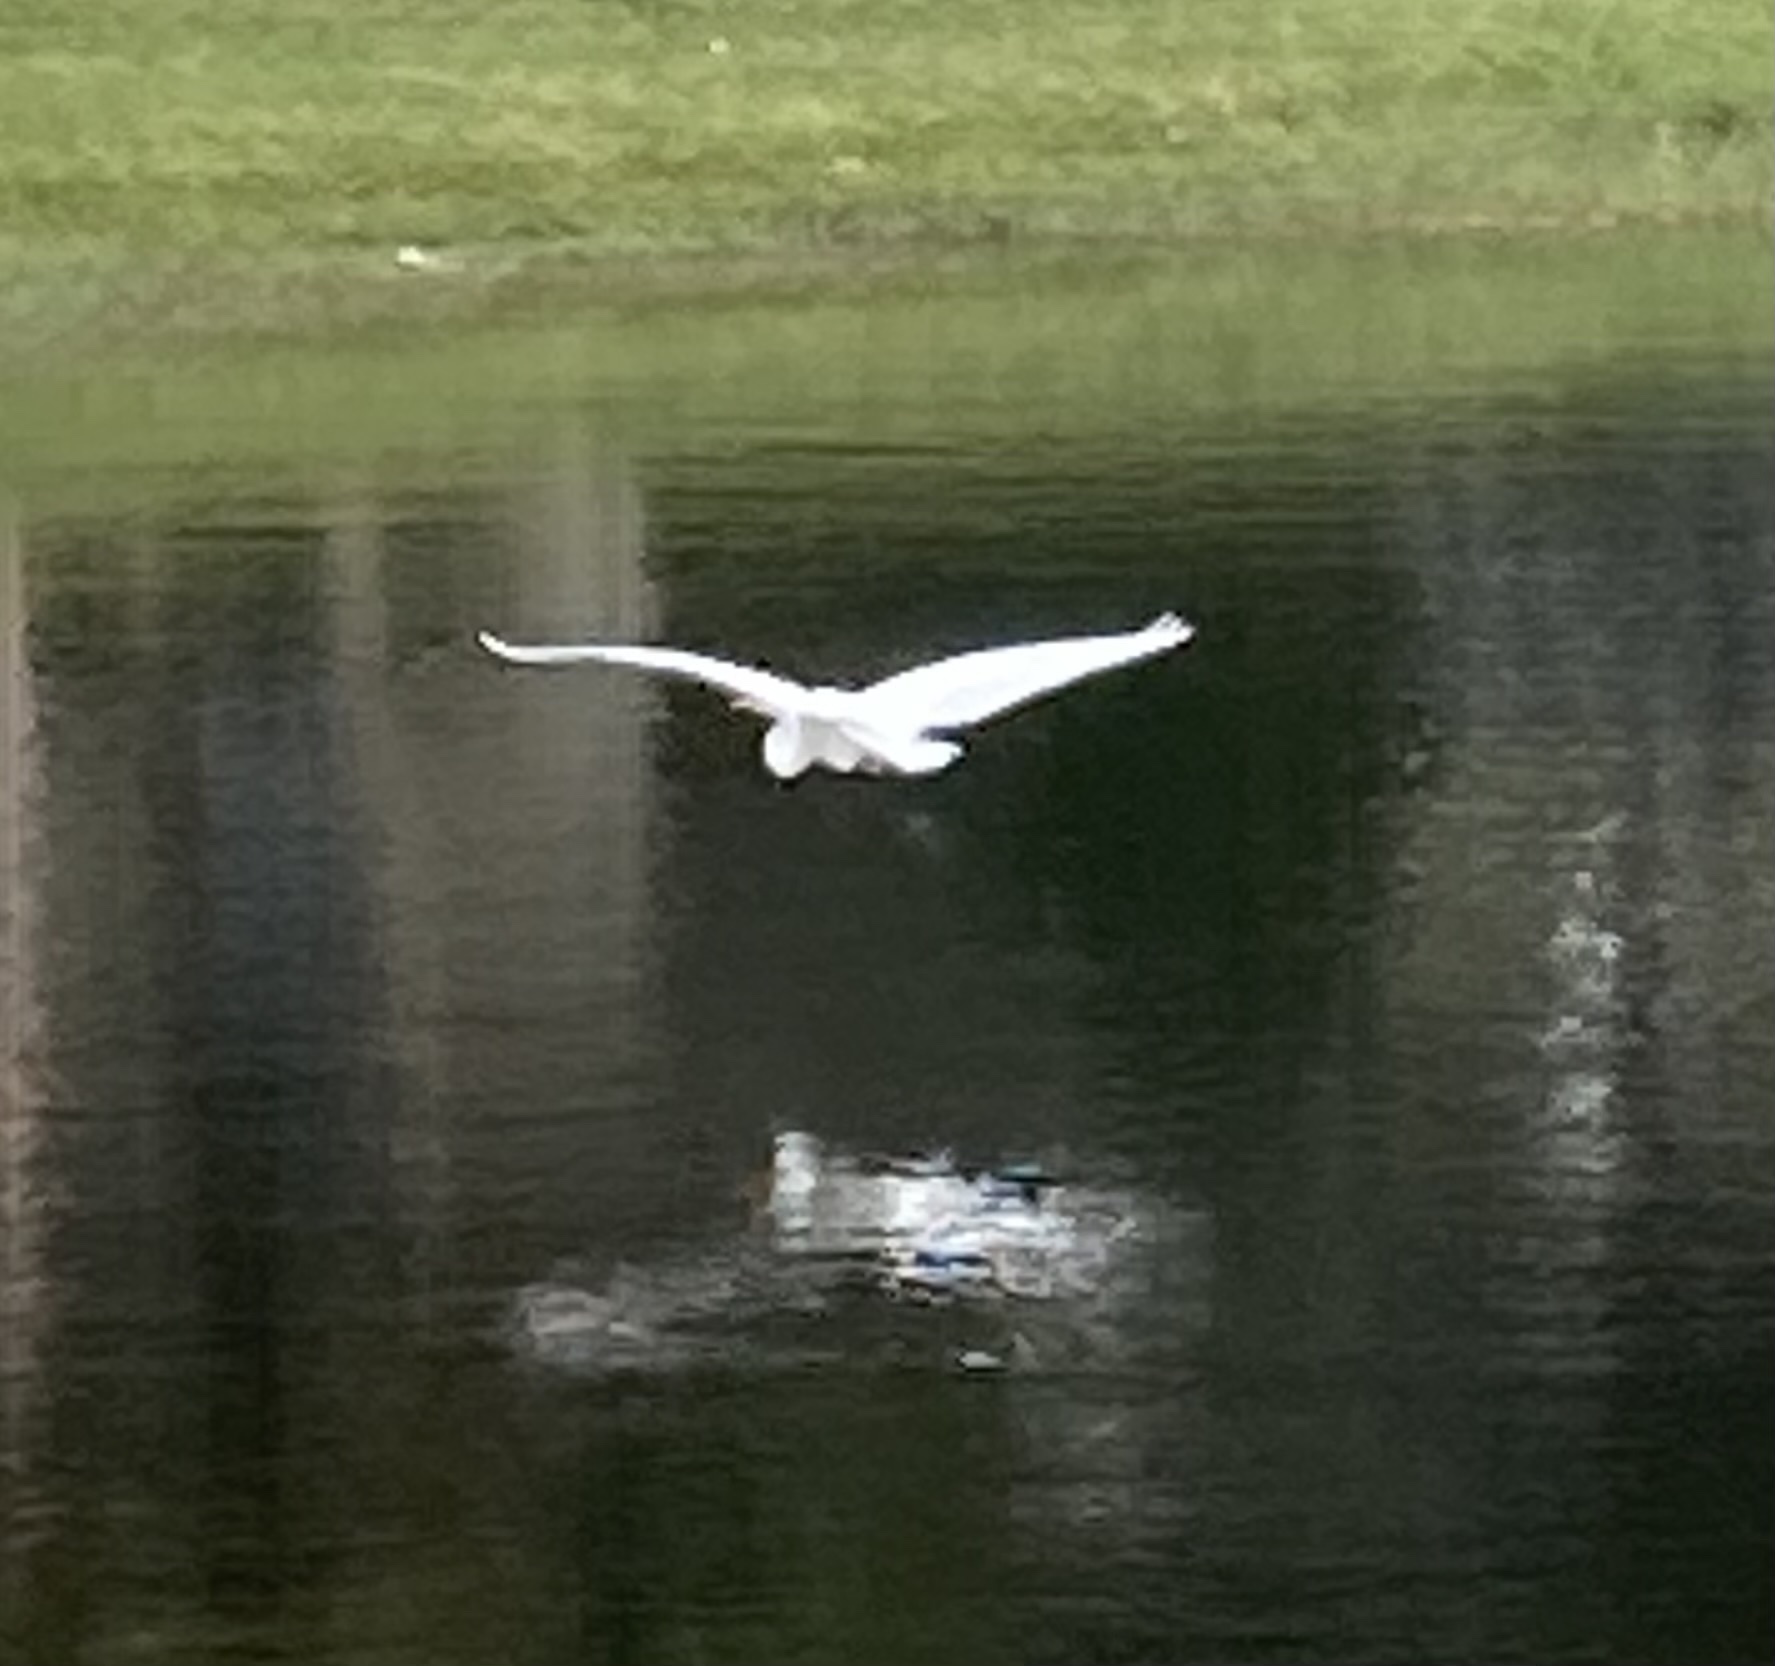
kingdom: Animalia
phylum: Chordata
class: Aves
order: Pelecaniformes
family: Ardeidae
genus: Ardea
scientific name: Ardea alba
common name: Great egret
